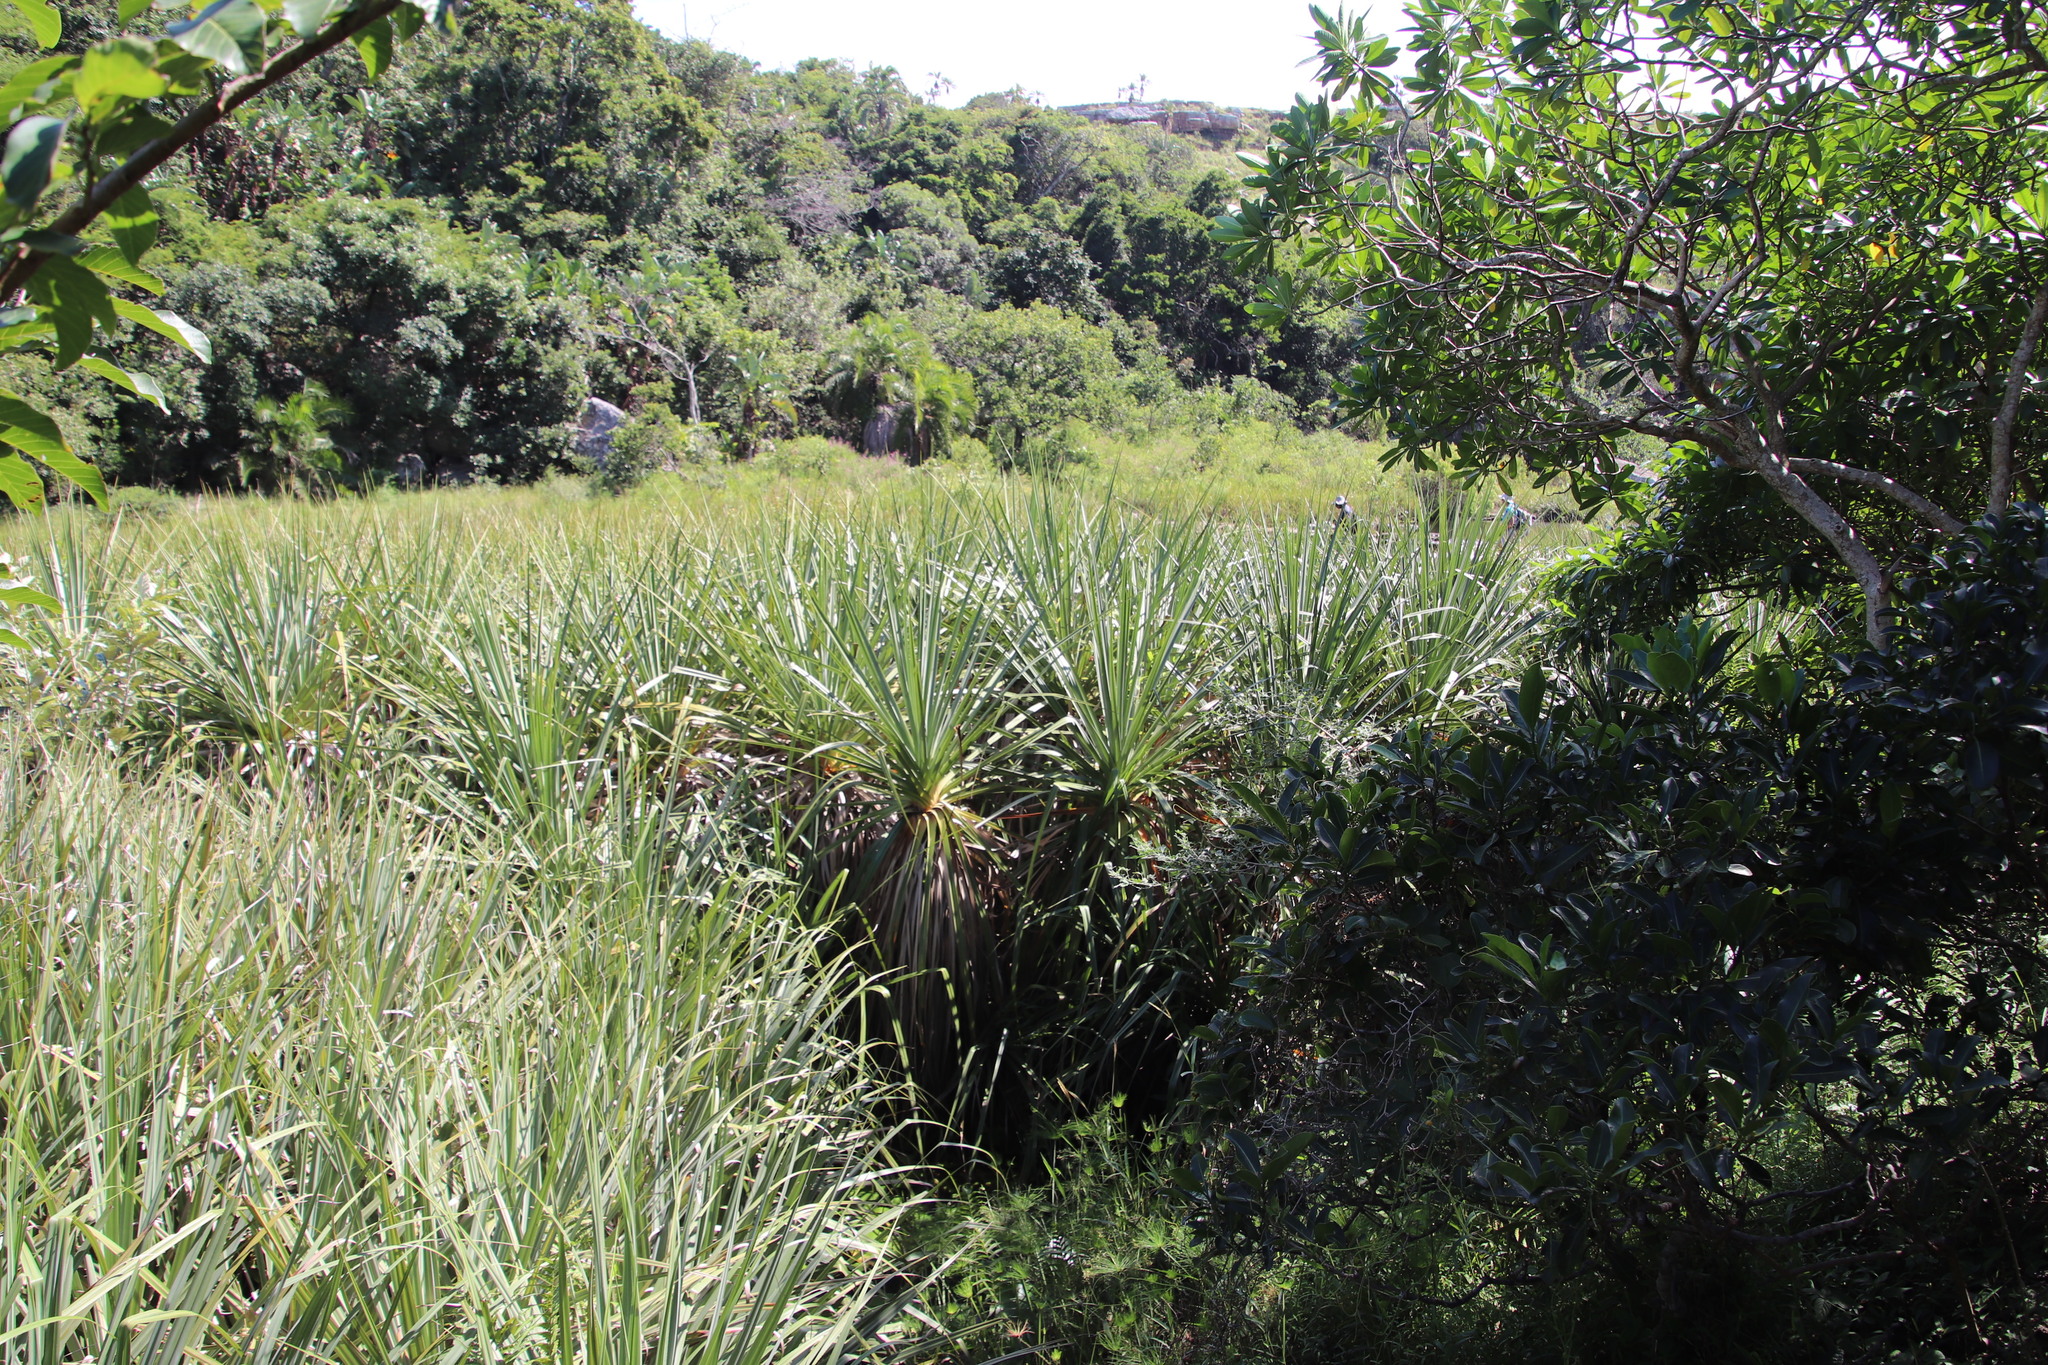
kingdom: Plantae
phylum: Tracheophyta
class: Liliopsida
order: Poales
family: Thurniaceae
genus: Prionium
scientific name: Prionium serratum
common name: Palmiet
